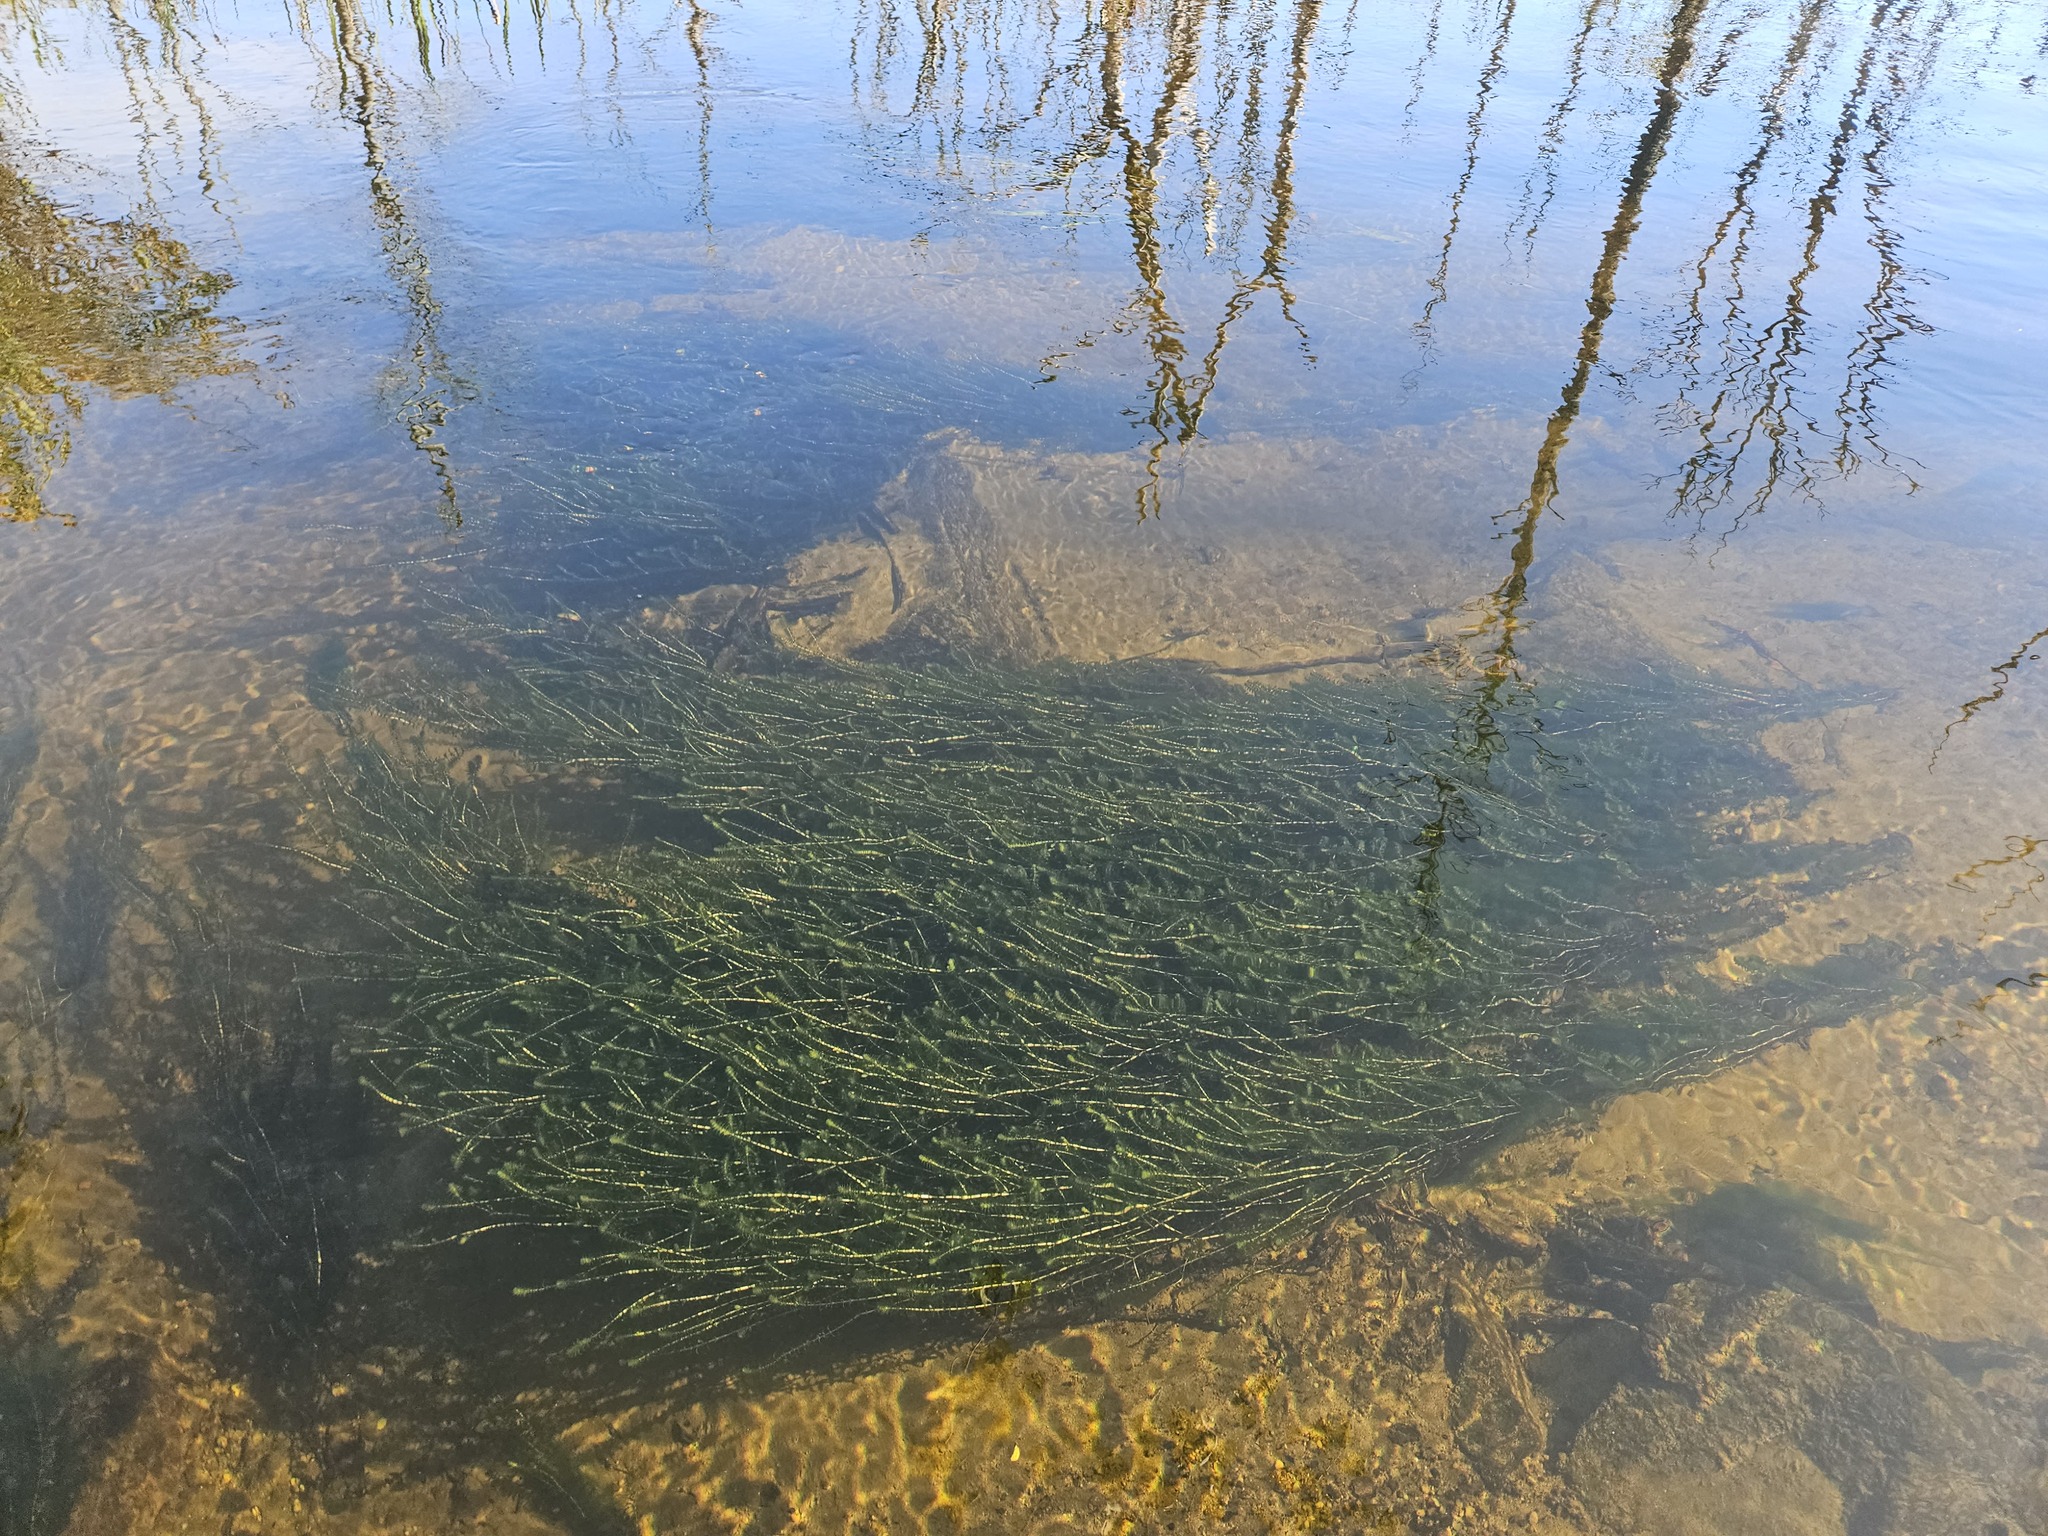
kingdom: Plantae
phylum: Tracheophyta
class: Liliopsida
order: Alismatales
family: Hydrocharitaceae
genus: Elodea
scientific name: Elodea canadensis
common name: Canadian waterweed
